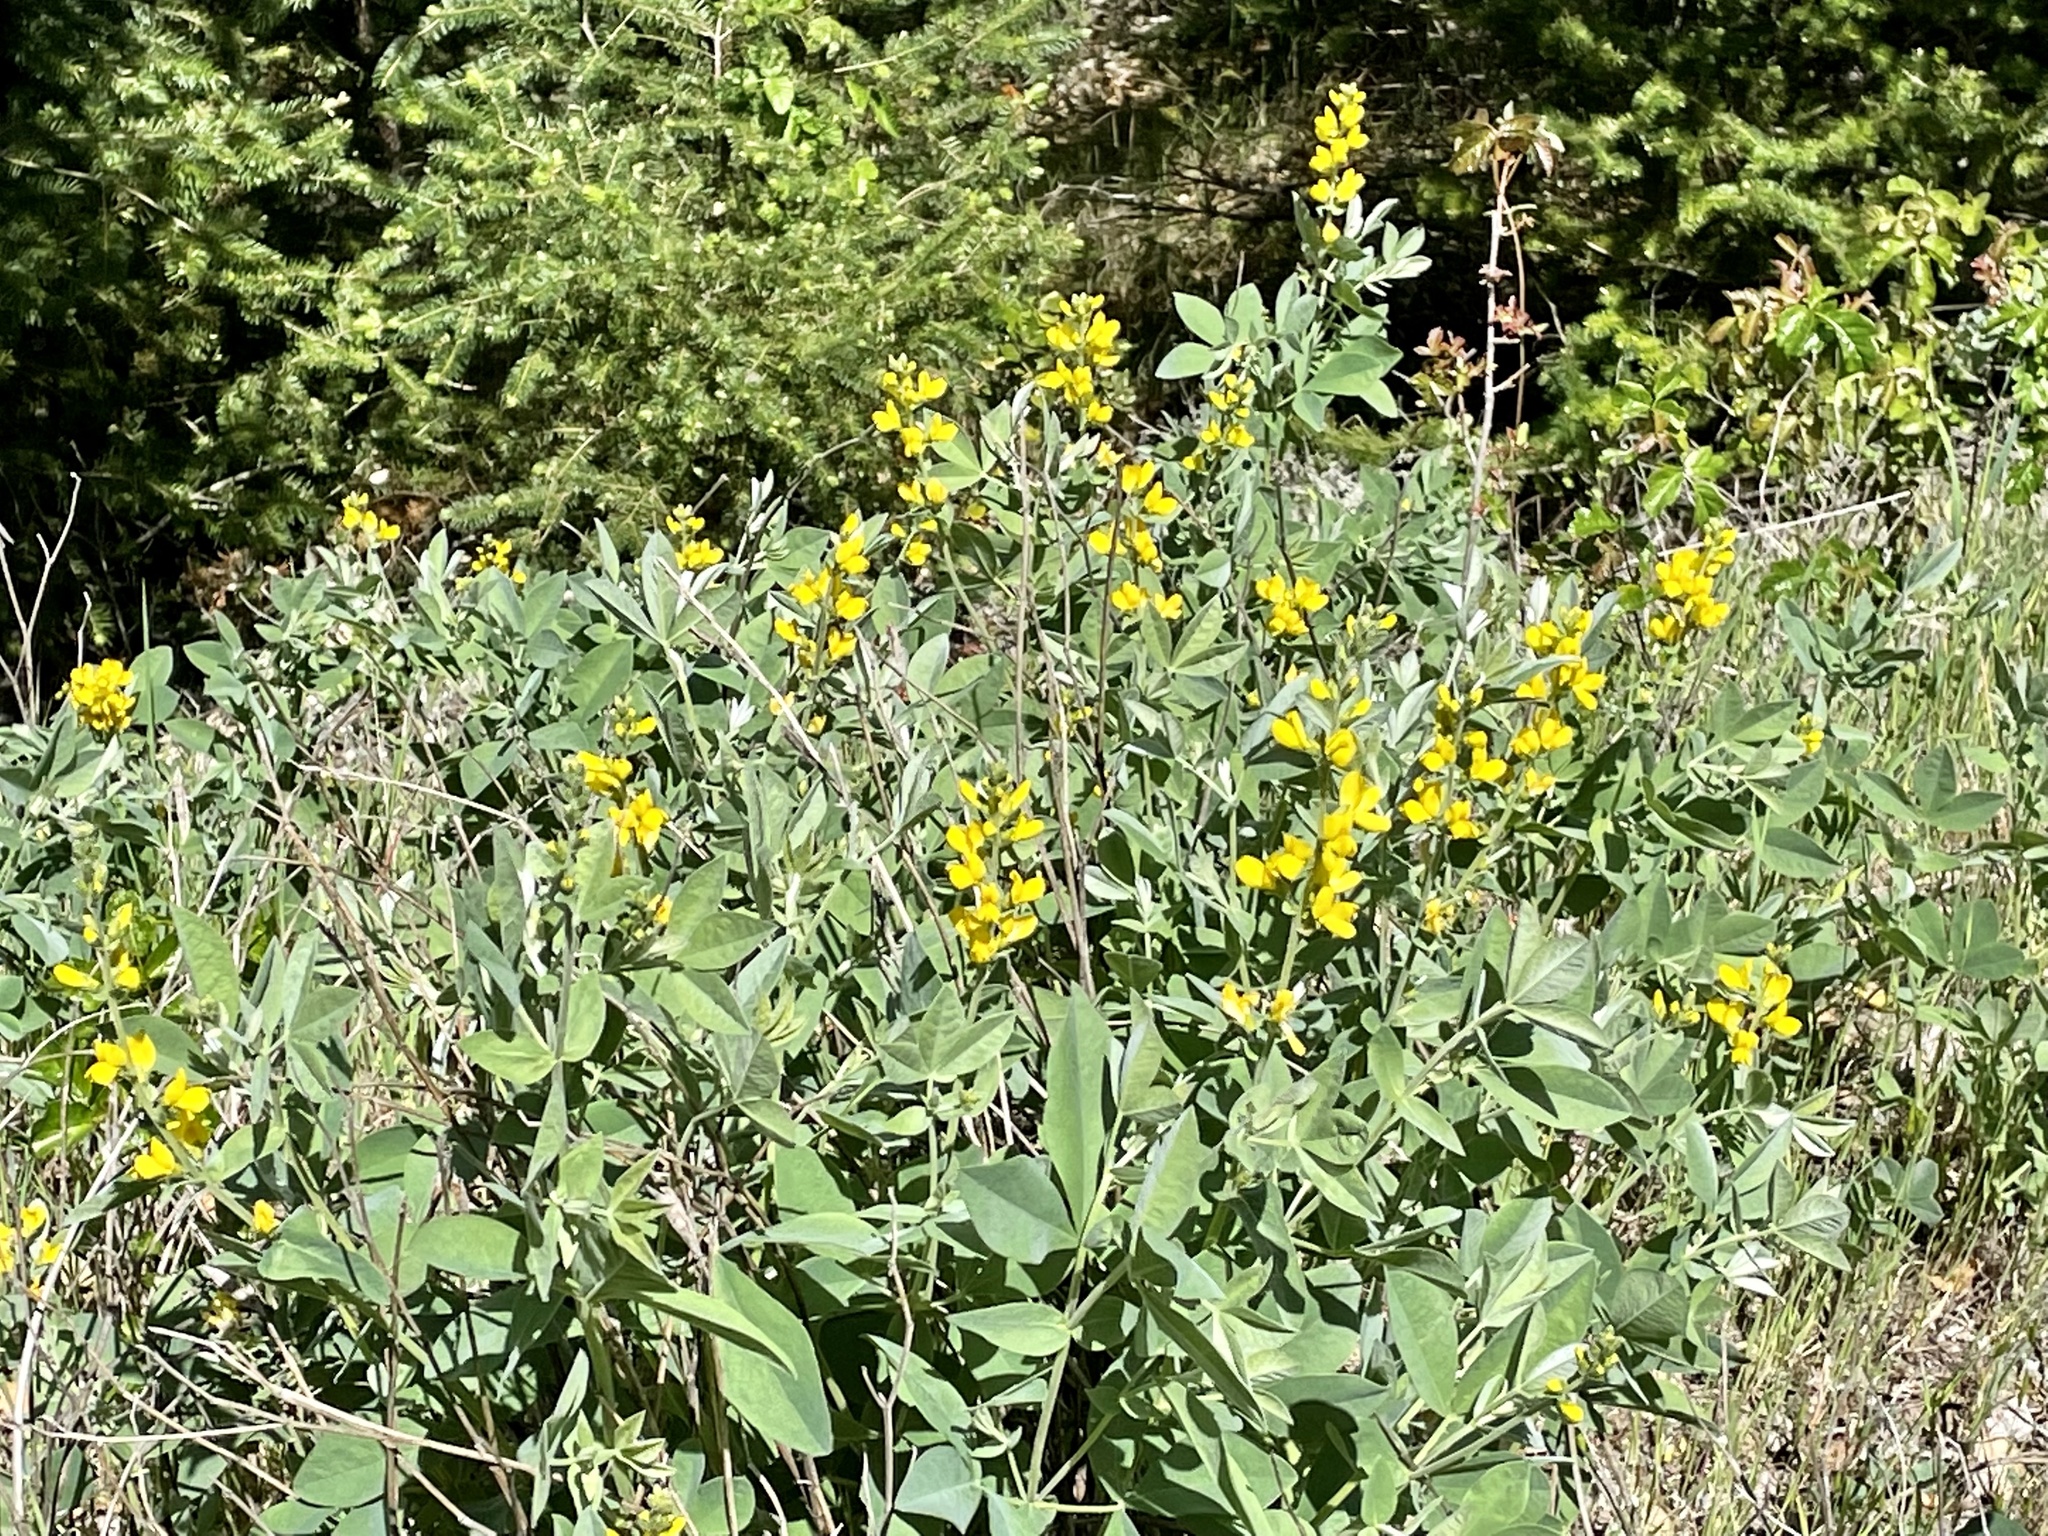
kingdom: Plantae
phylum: Tracheophyta
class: Magnoliopsida
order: Fabales
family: Fabaceae
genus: Thermopsis
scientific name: Thermopsis californica
